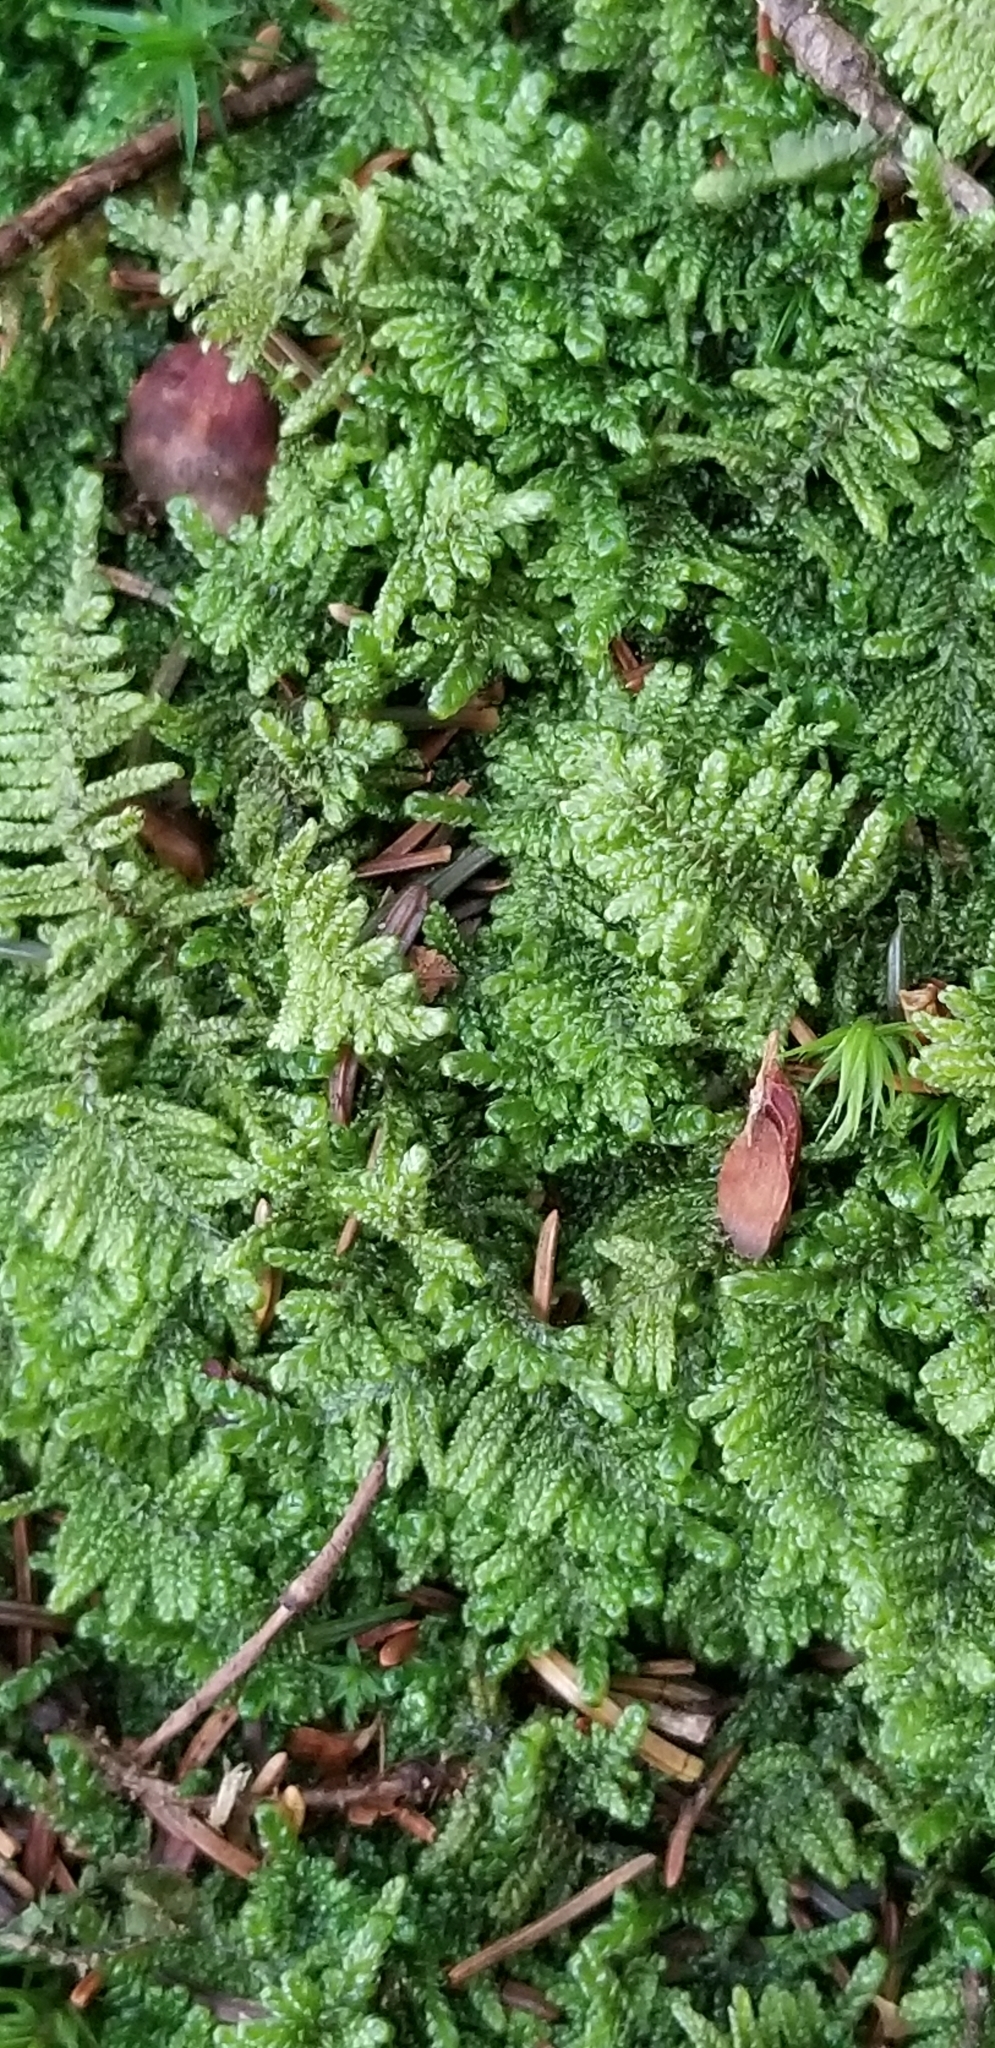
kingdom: Plantae
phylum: Bryophyta
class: Bryopsida
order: Hypnales
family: Callicladiaceae
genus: Callicladium
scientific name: Callicladium imponens
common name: Brocade moss
